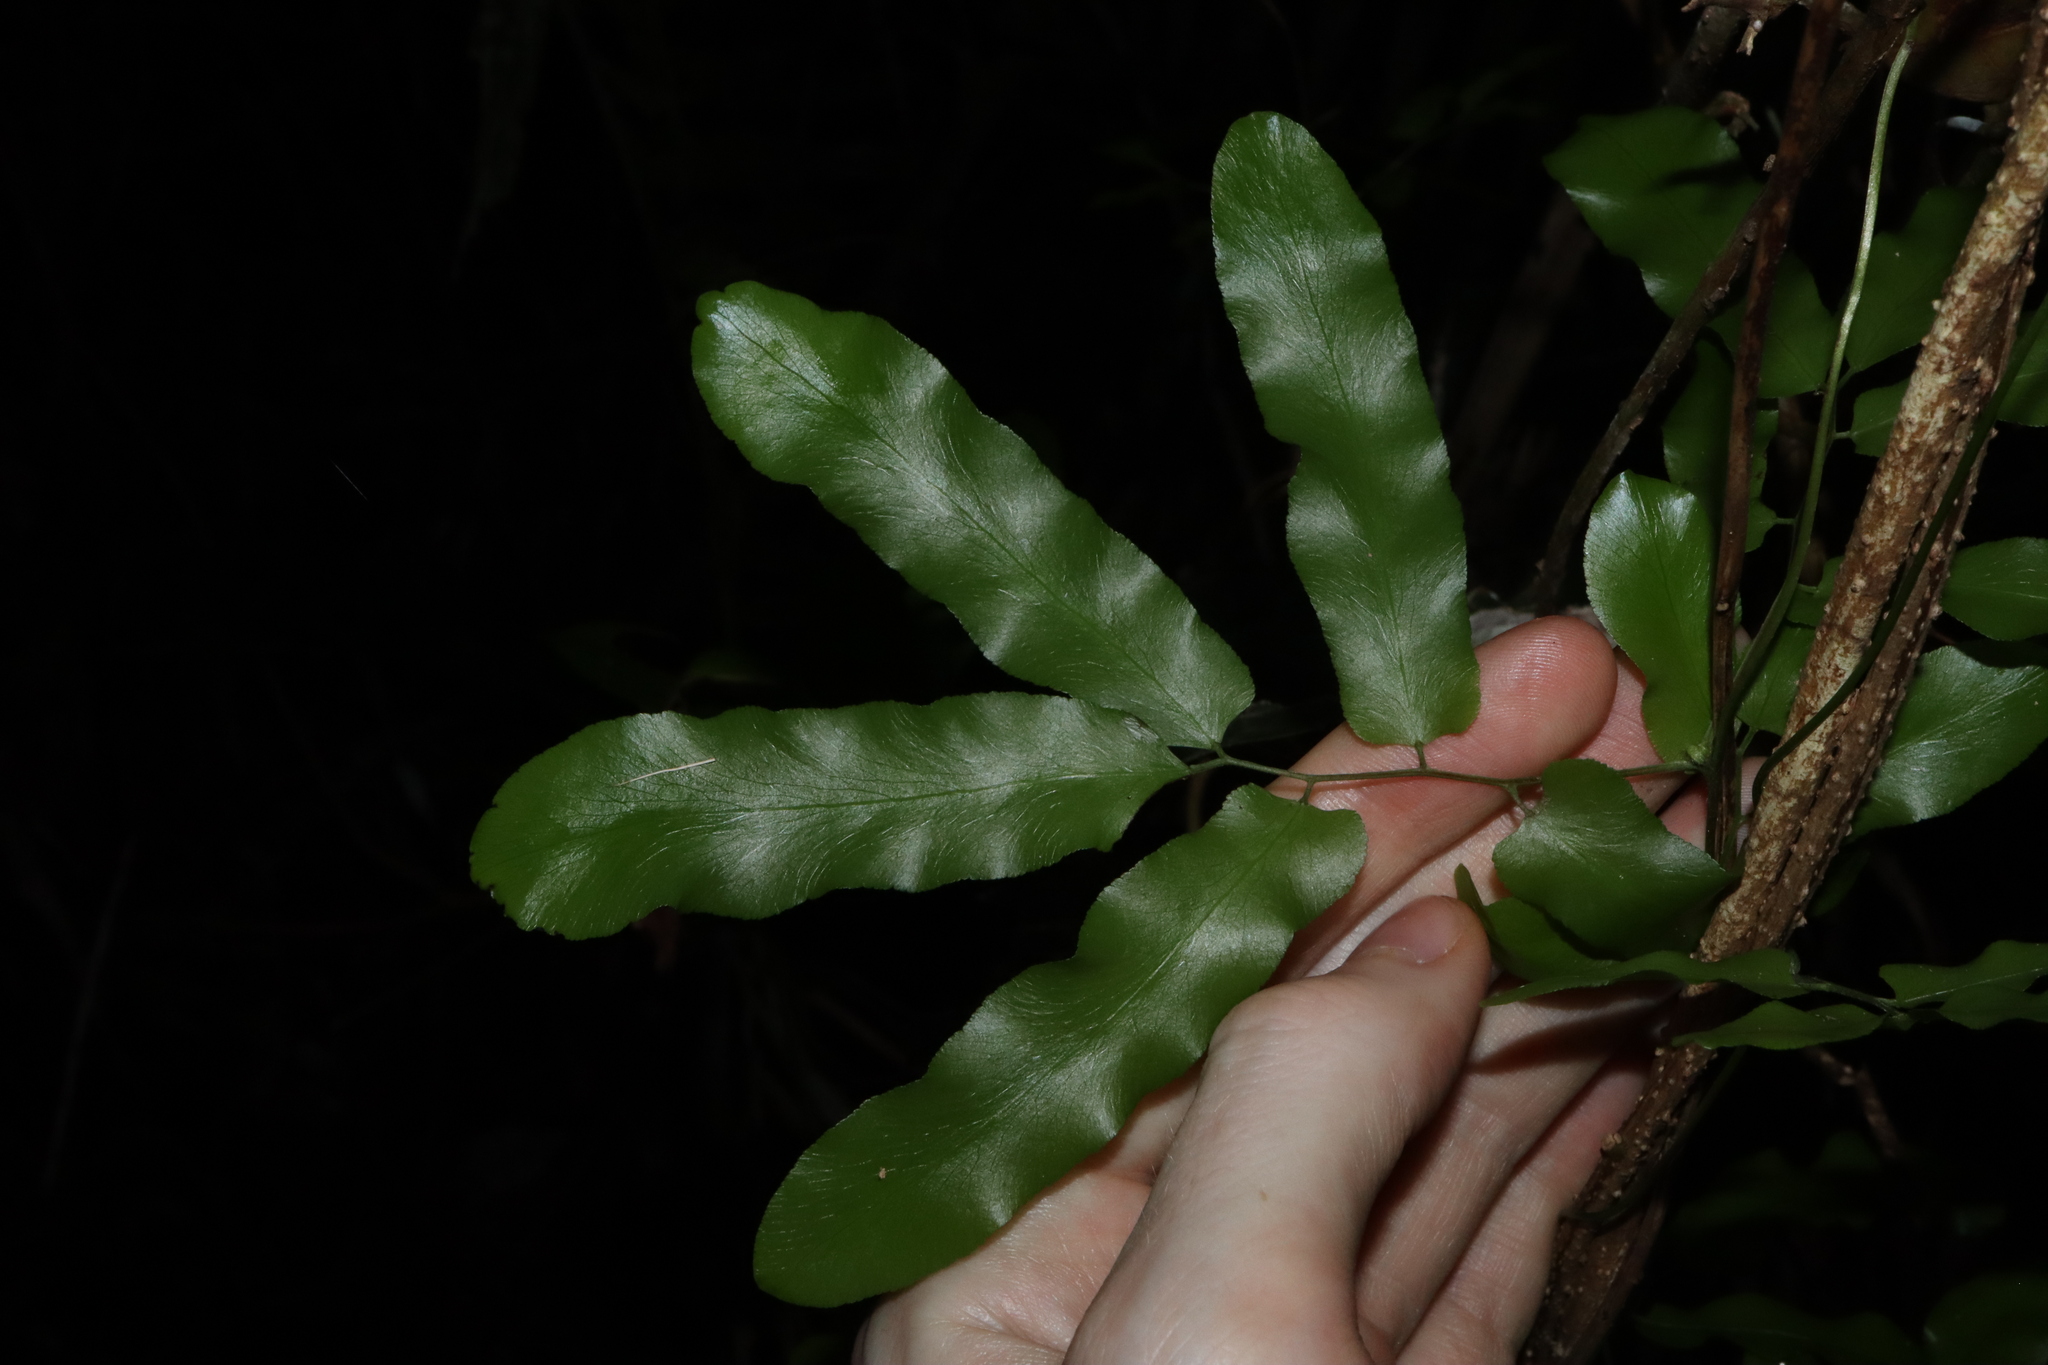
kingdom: Plantae
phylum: Tracheophyta
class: Polypodiopsida
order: Schizaeales
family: Lygodiaceae
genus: Lygodium
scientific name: Lygodium reticulatum
